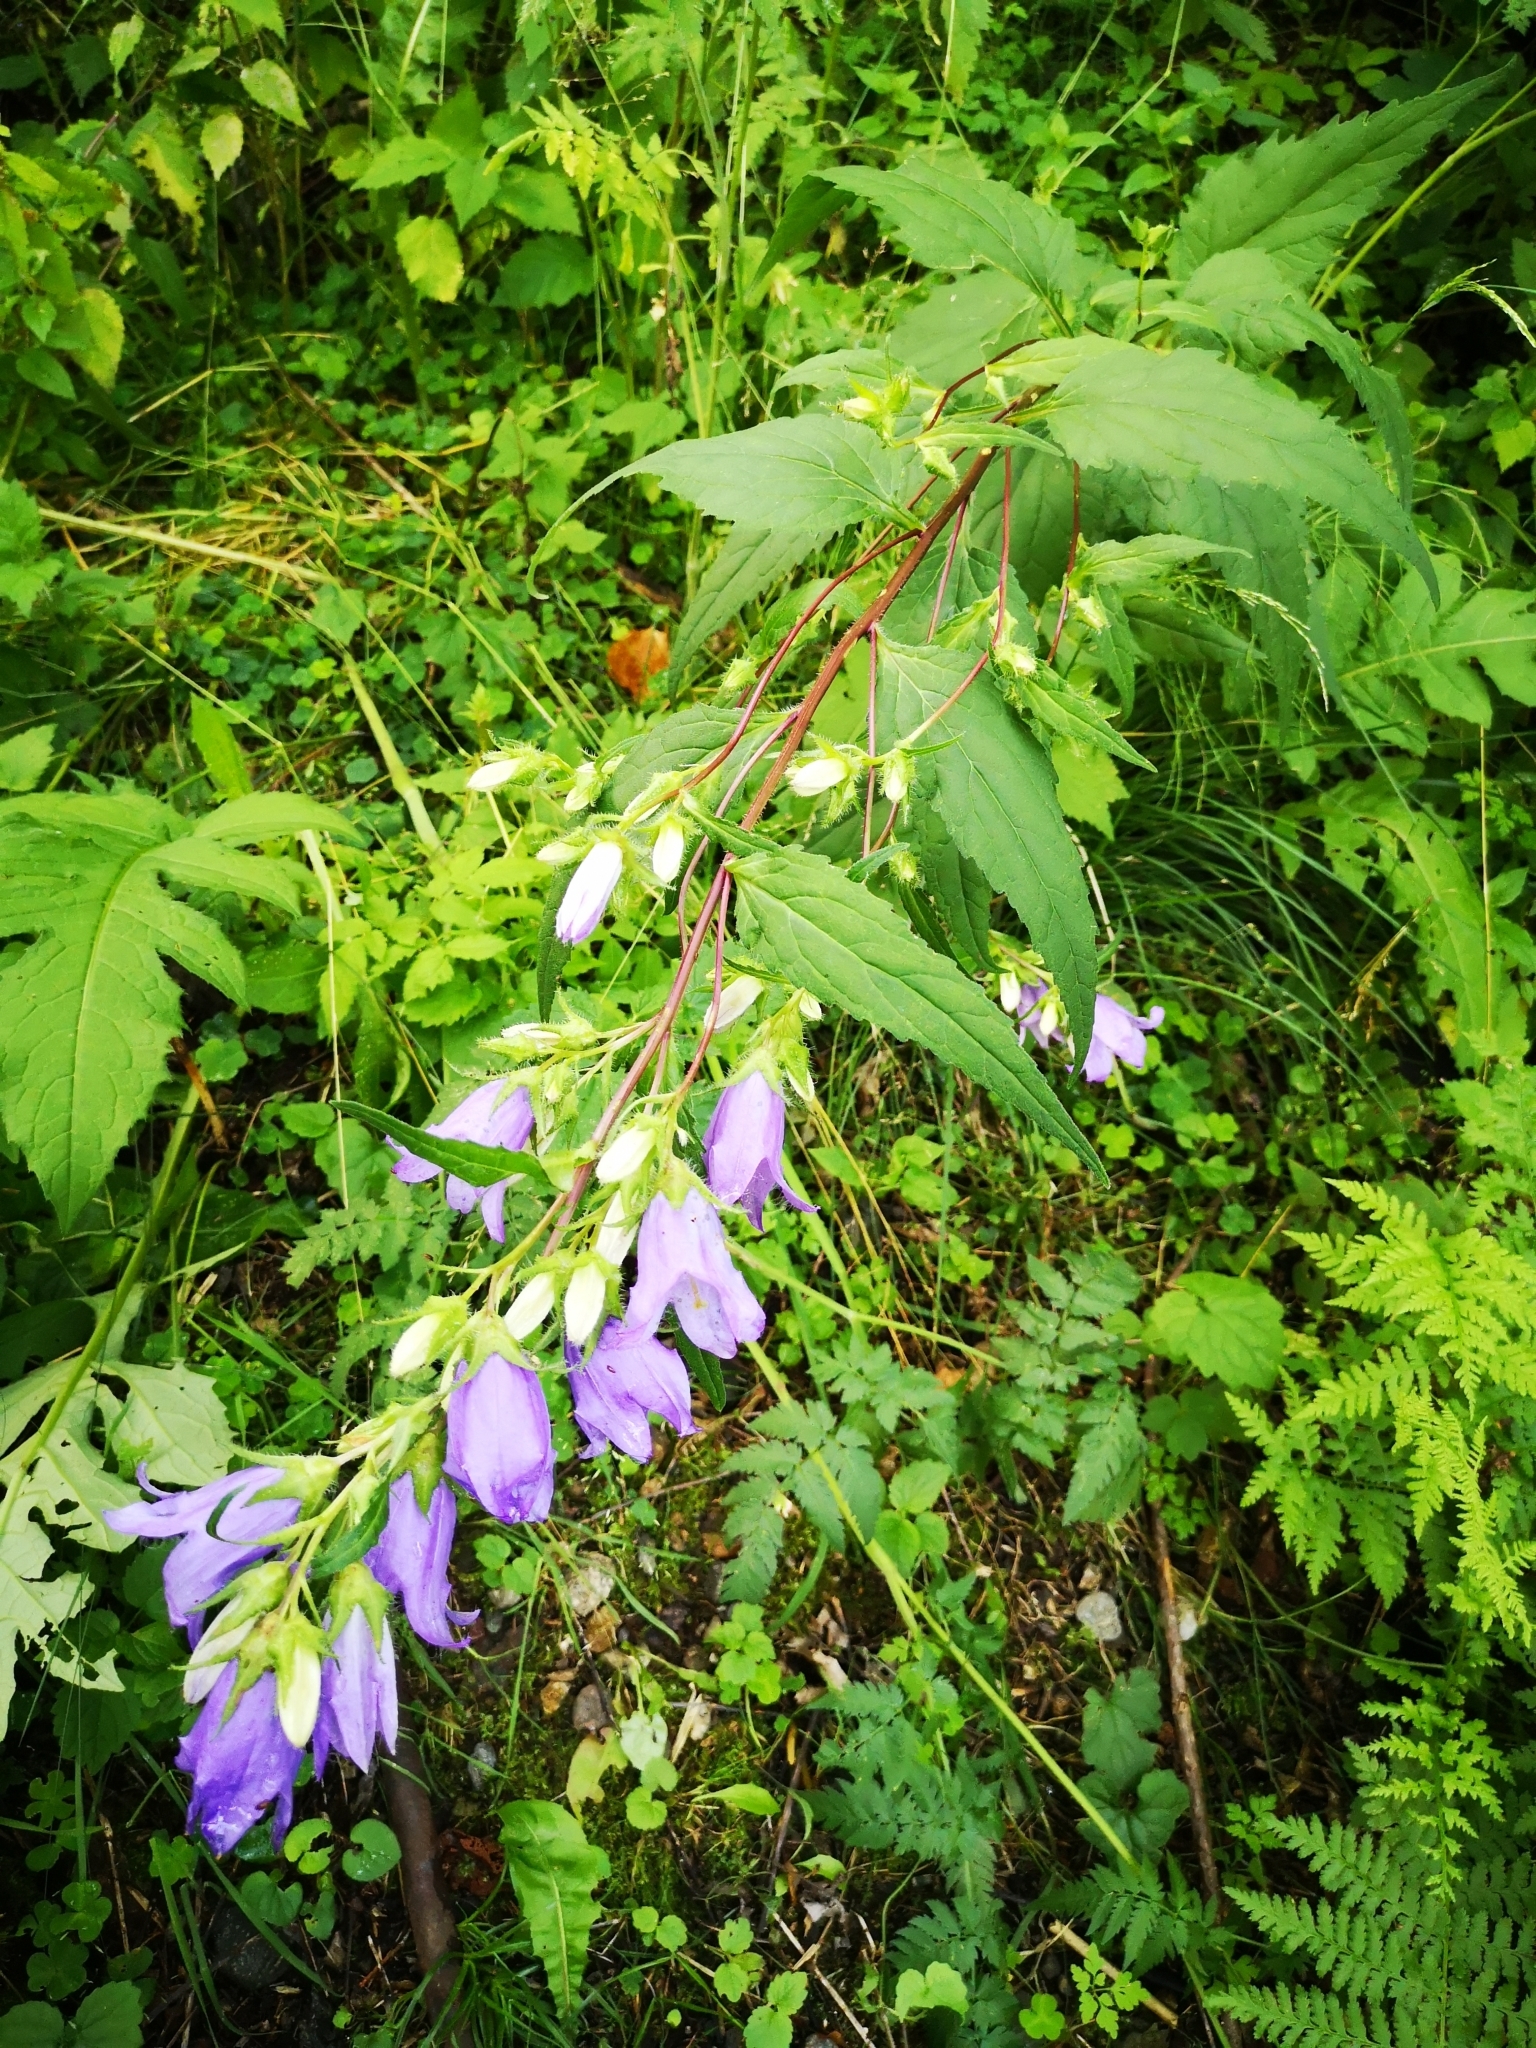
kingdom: Plantae
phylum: Tracheophyta
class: Magnoliopsida
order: Asterales
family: Campanulaceae
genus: Campanula
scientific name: Campanula trachelium
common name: Nettle-leaved bellflower
